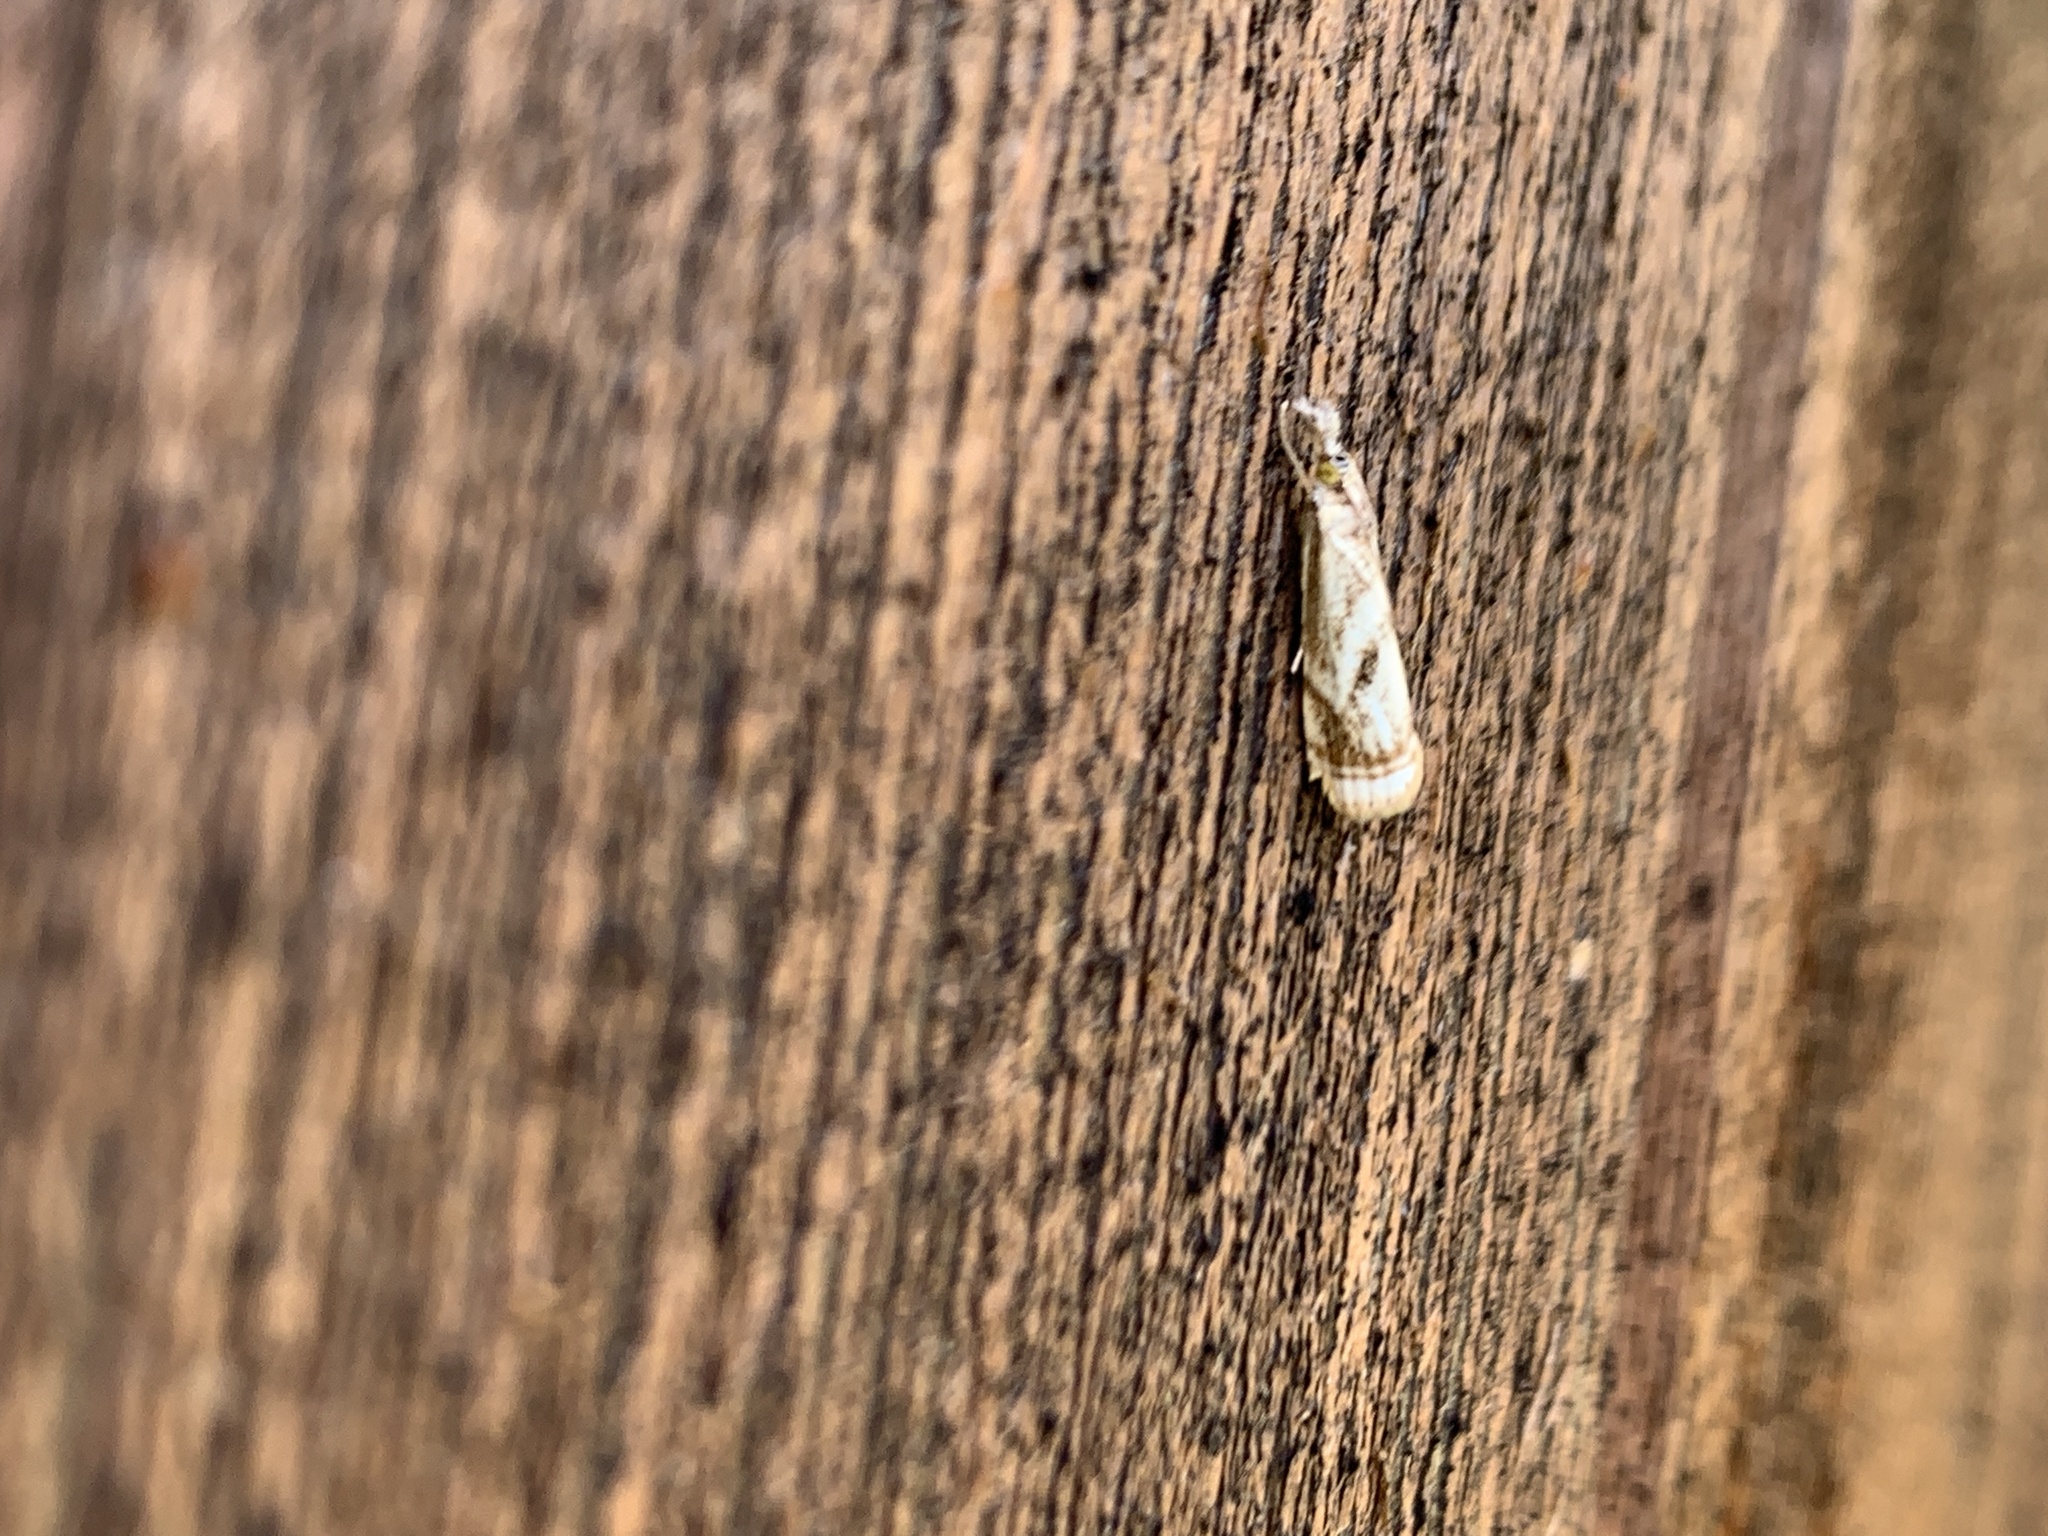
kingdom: Animalia
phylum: Arthropoda
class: Insecta
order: Lepidoptera
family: Crambidae
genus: Microcrambus
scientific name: Microcrambus elegans
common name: Elegant grass-veneer
